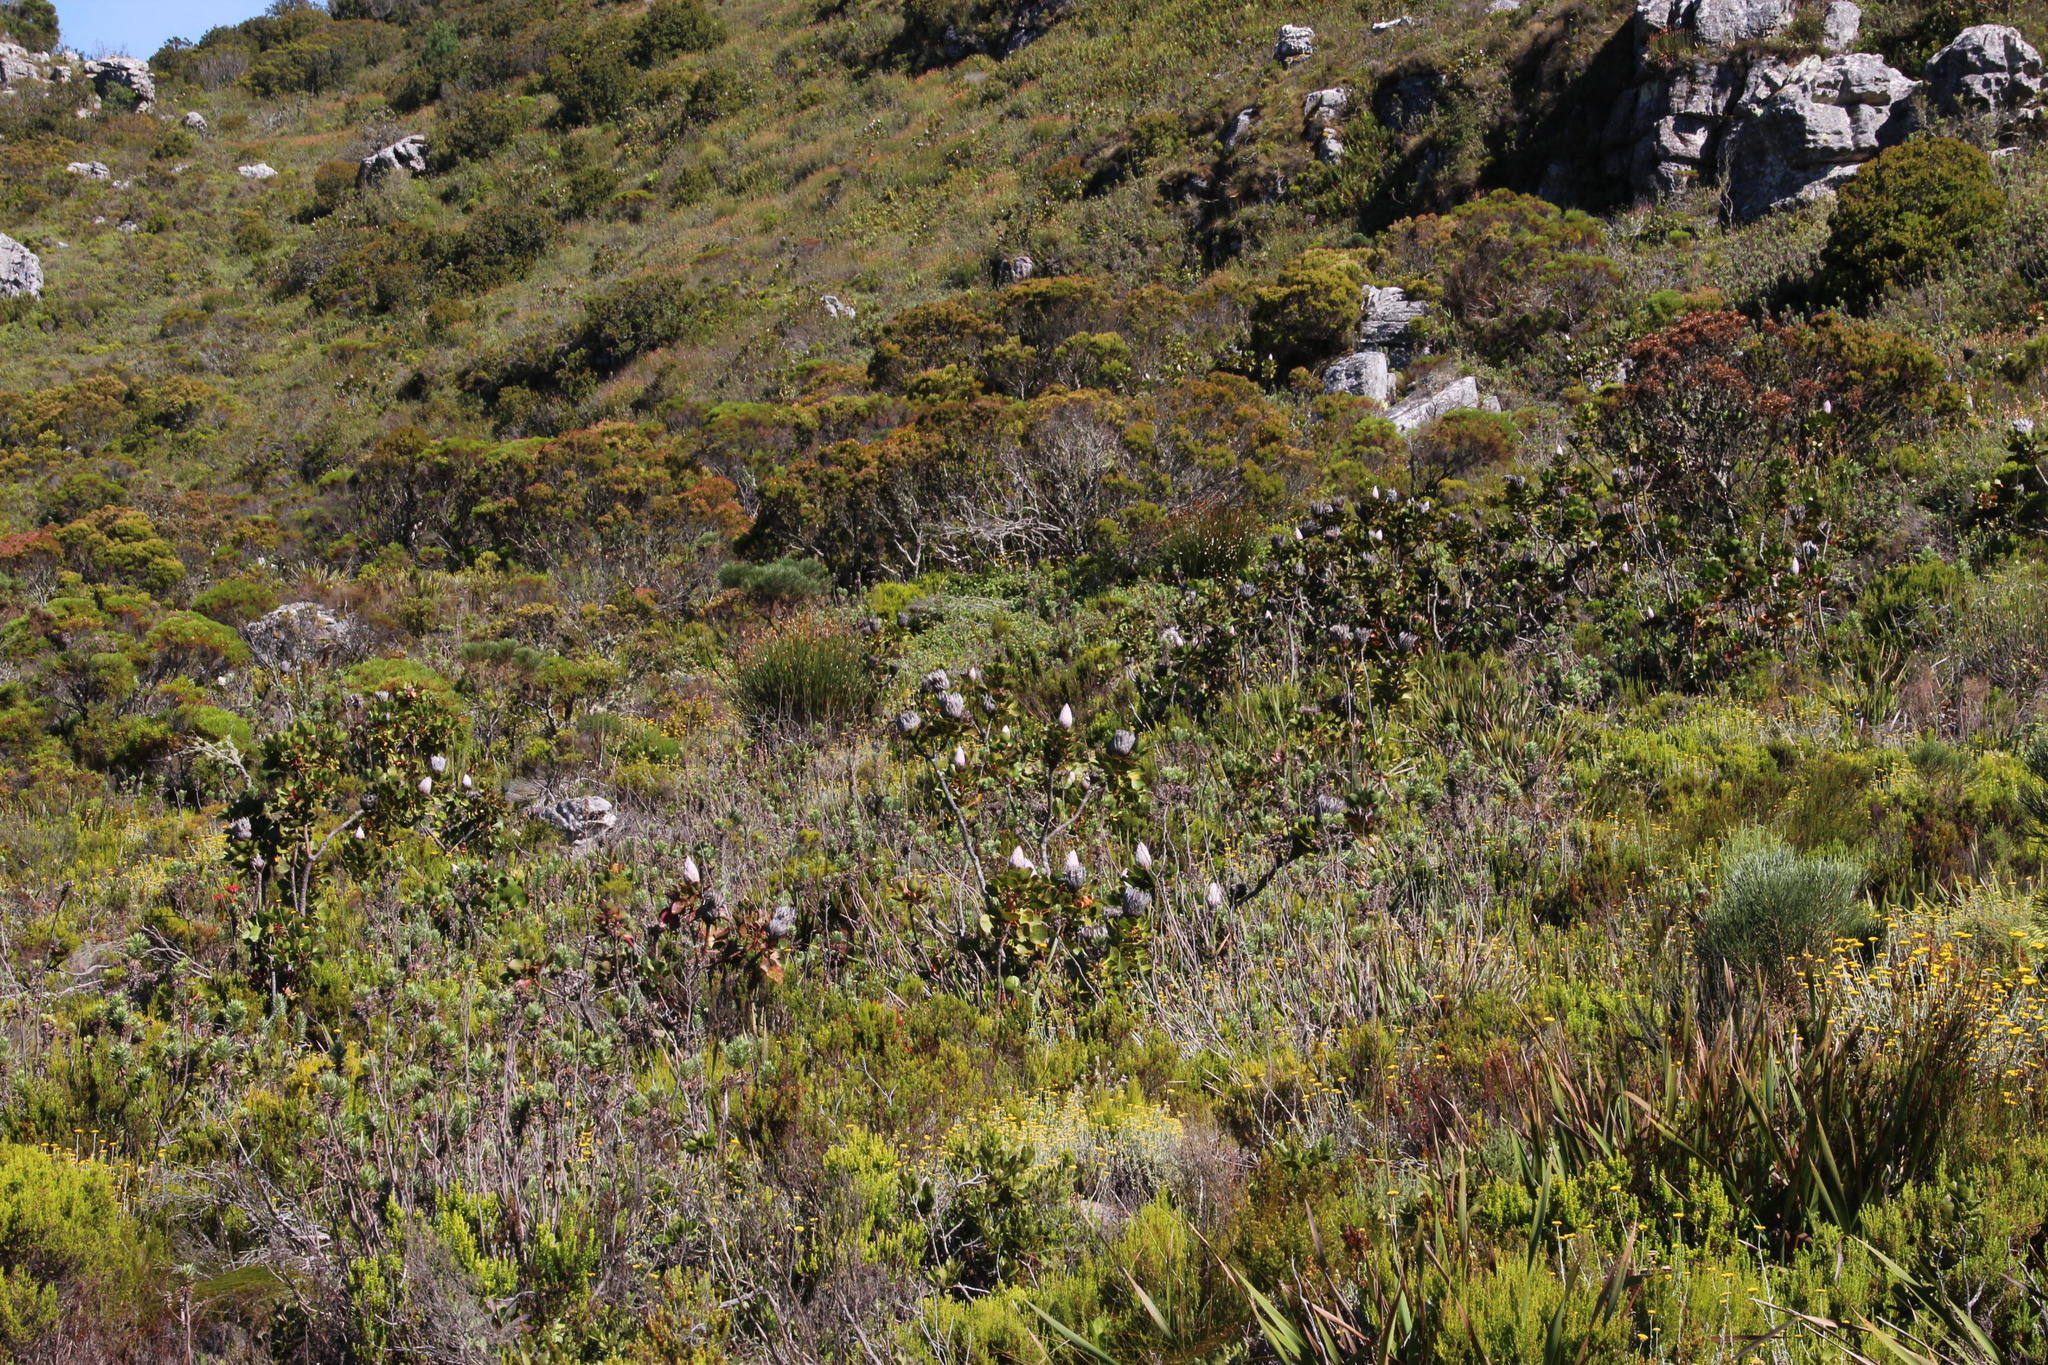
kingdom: Plantae
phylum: Tracheophyta
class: Magnoliopsida
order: Proteales
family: Proteaceae
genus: Protea
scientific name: Protea cynaroides
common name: King protea
